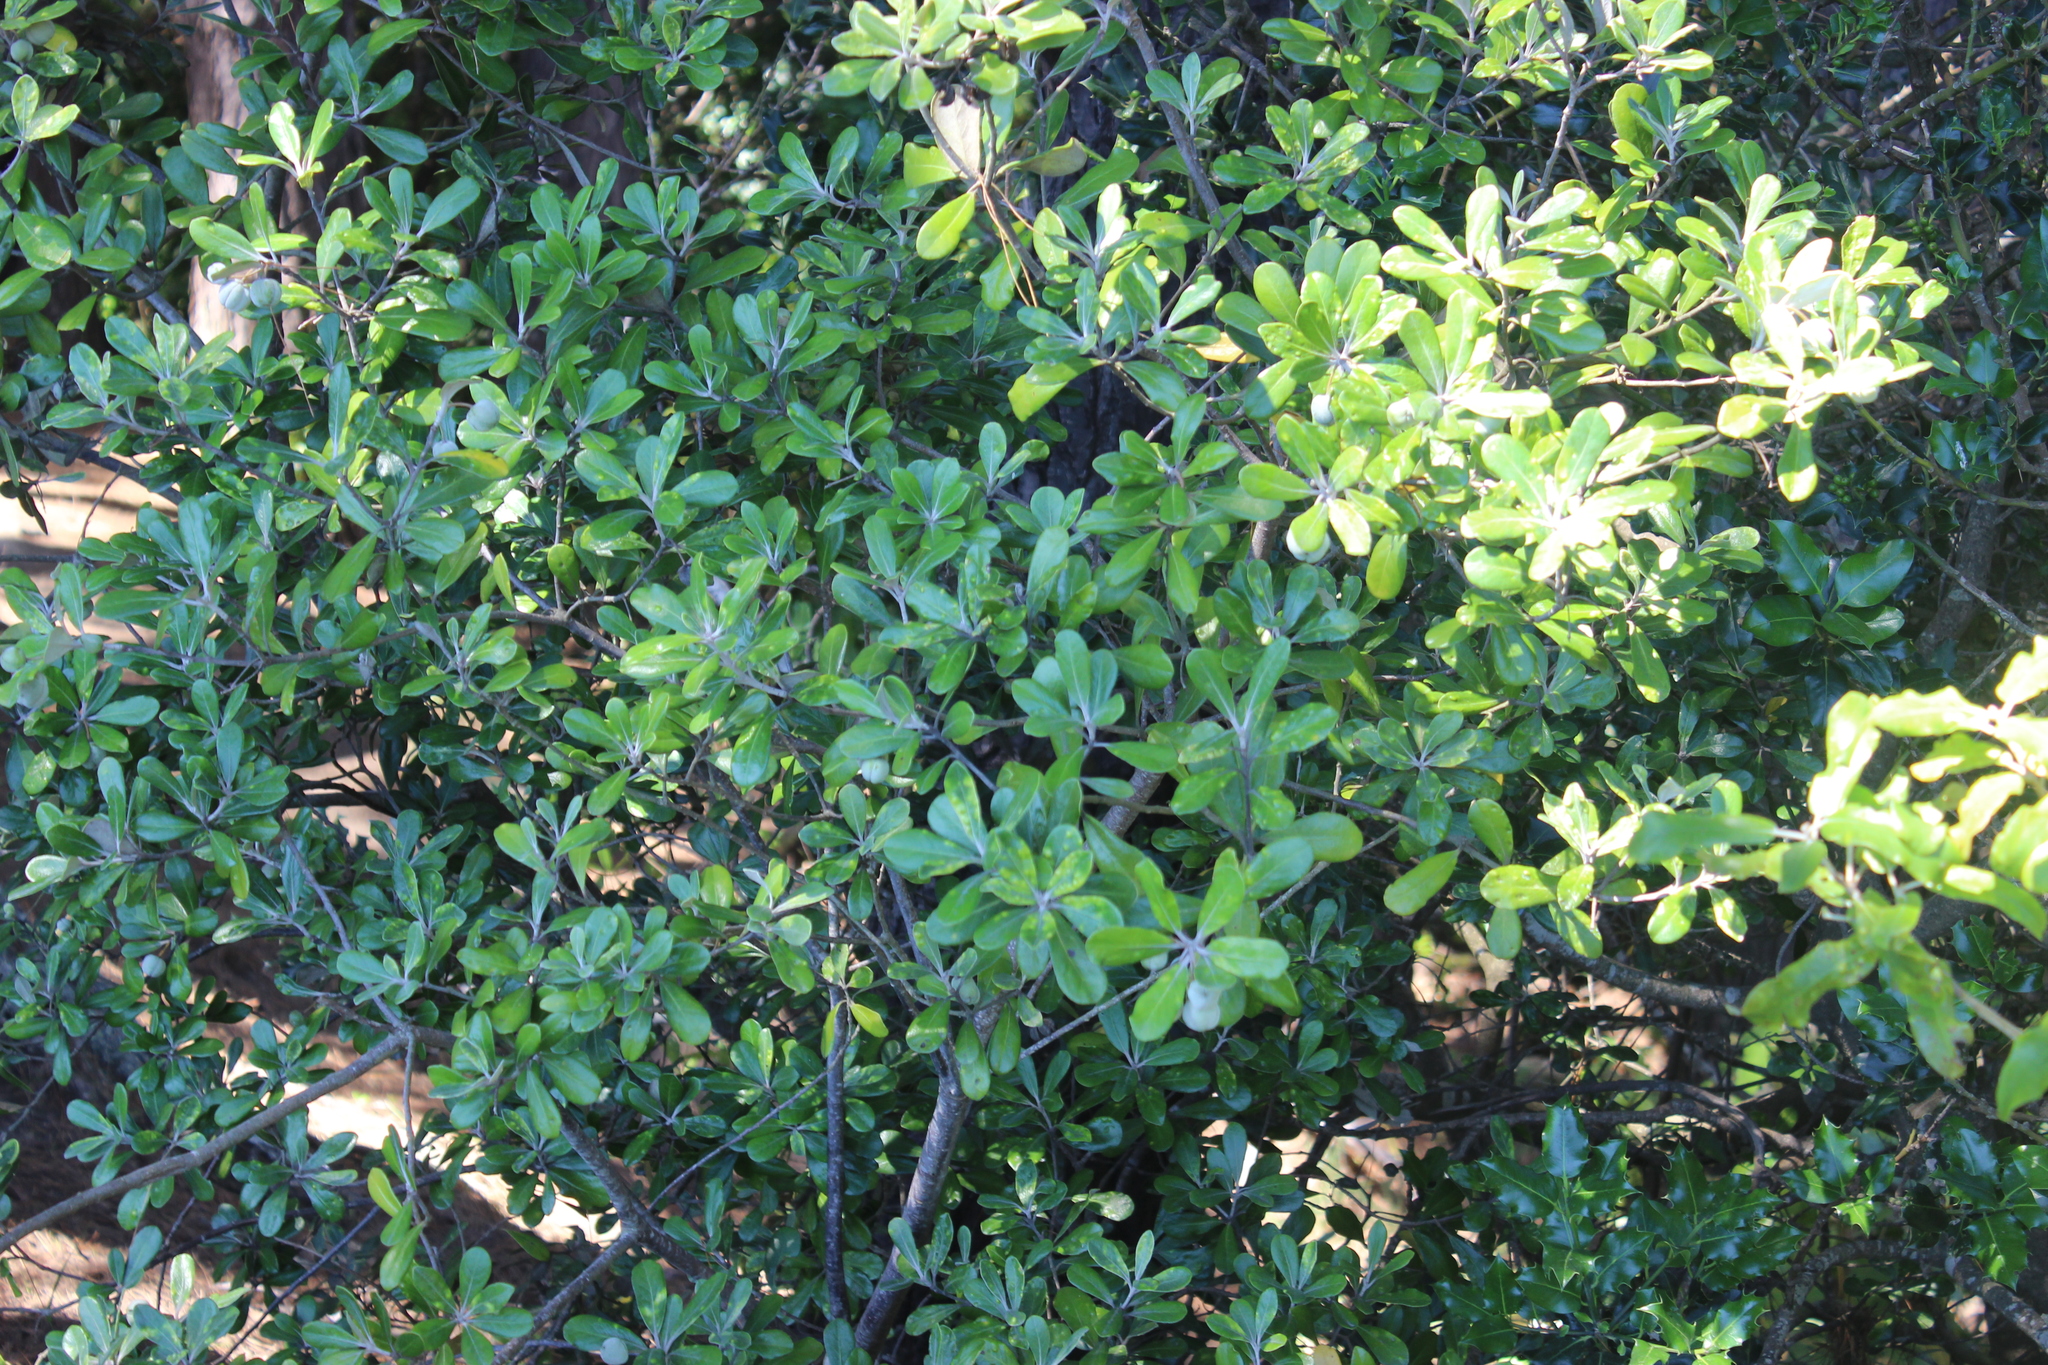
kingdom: Plantae
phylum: Tracheophyta
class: Magnoliopsida
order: Apiales
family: Pittosporaceae
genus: Pittosporum
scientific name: Pittosporum crassifolium
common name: Karo
